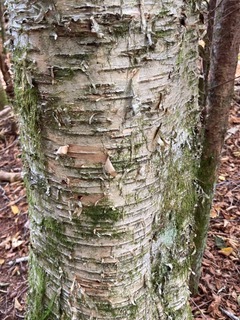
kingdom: Plantae
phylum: Tracheophyta
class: Magnoliopsida
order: Fagales
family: Betulaceae
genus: Betula
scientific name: Betula alleghaniensis
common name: Yellow birch
